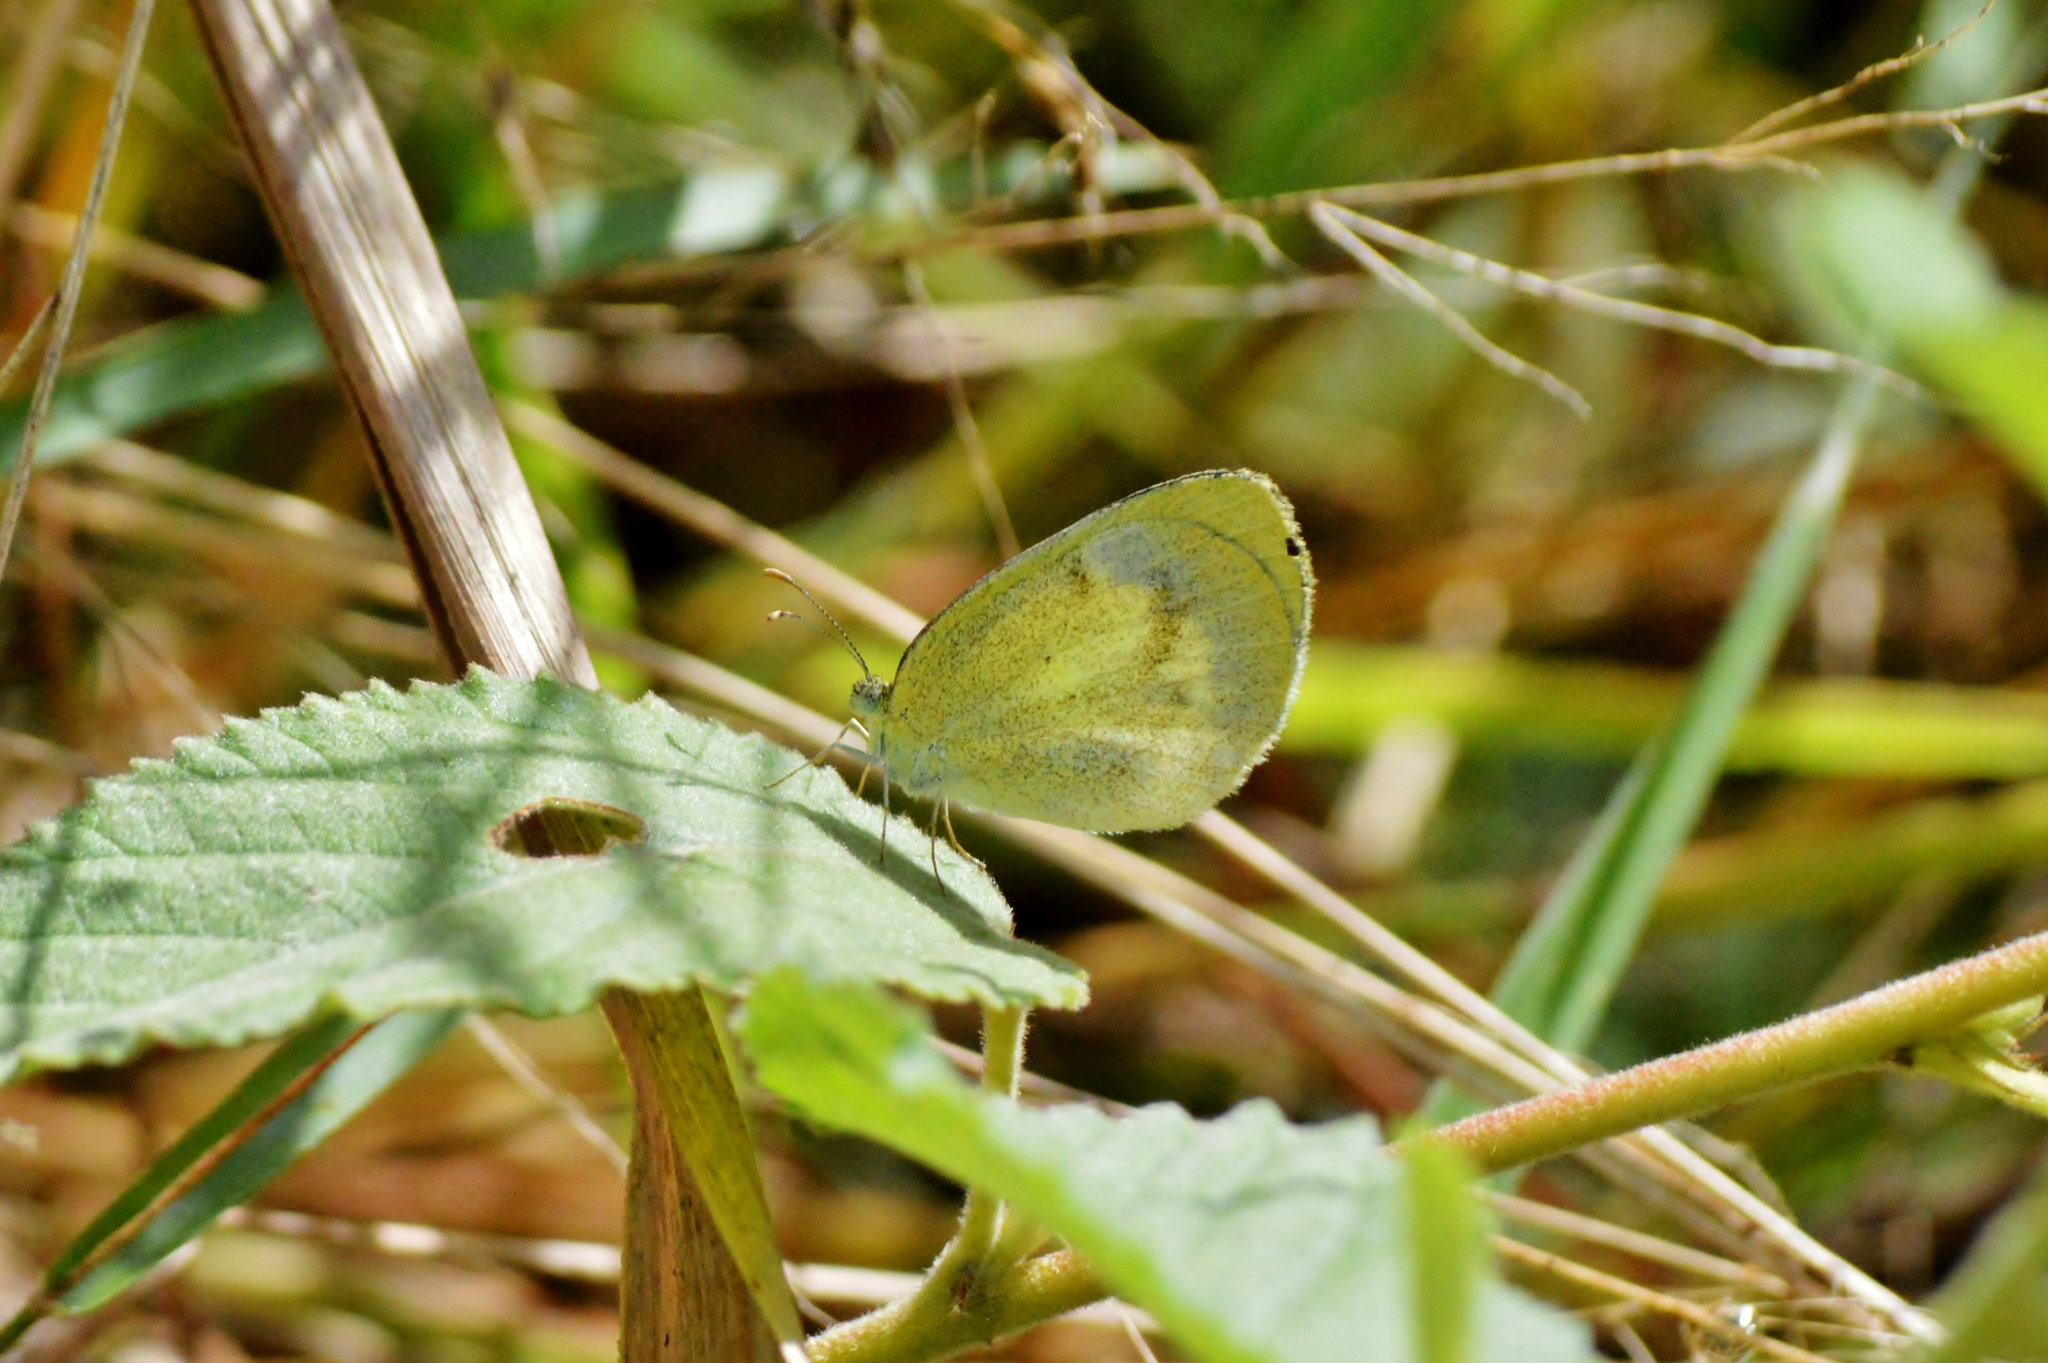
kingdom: Animalia
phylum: Arthropoda
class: Insecta
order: Lepidoptera
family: Pieridae
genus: Eurema
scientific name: Eurema elathea
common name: Banded yellow
